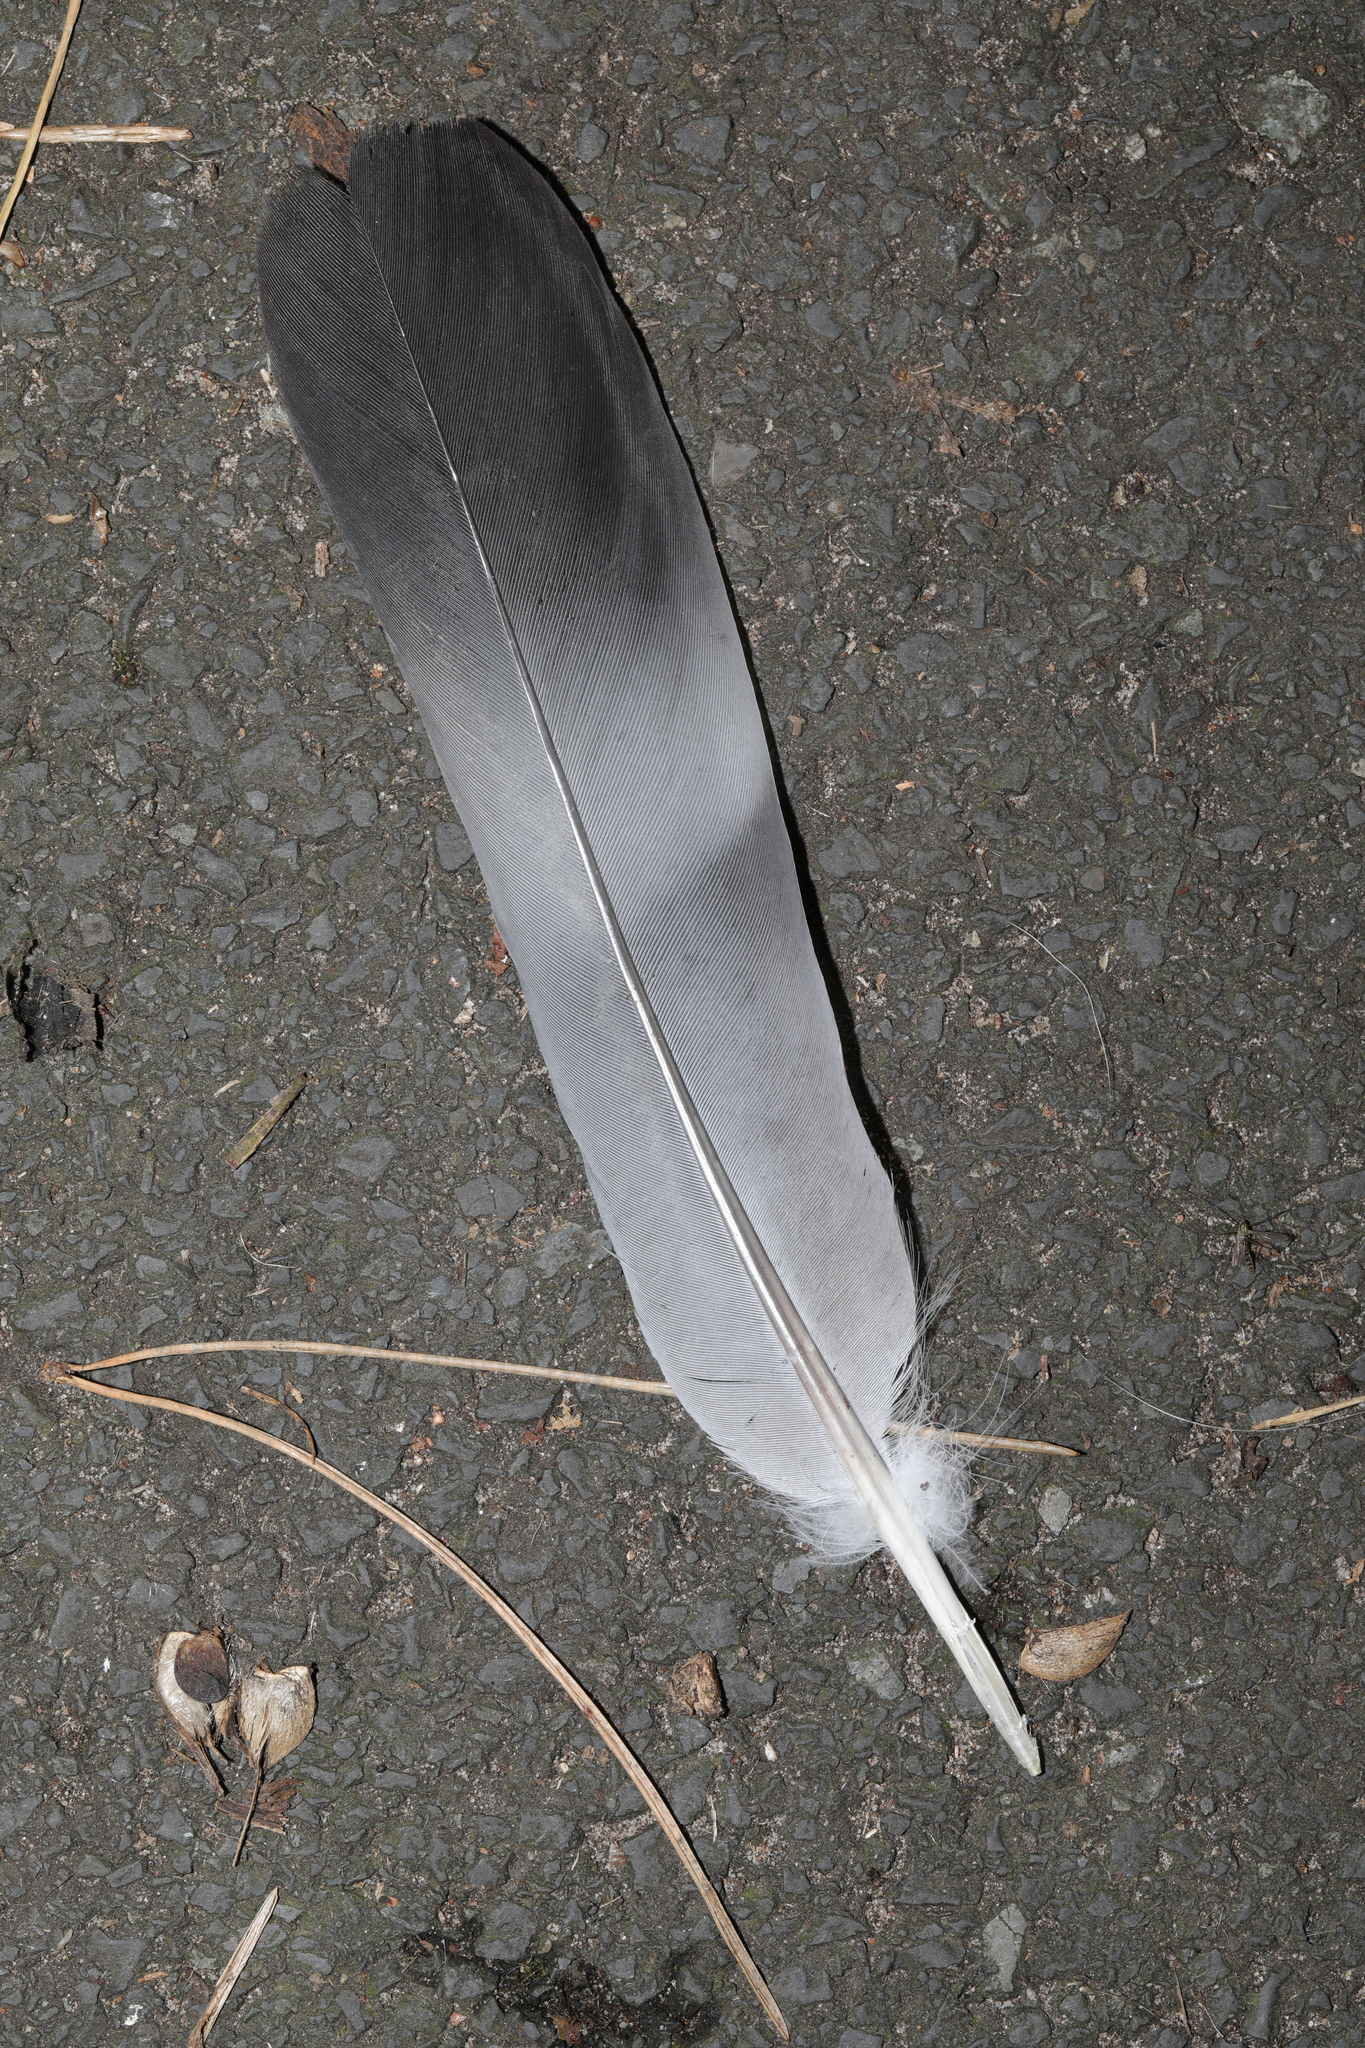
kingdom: Animalia
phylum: Chordata
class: Aves
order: Columbiformes
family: Columbidae
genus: Columba
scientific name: Columba palumbus
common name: Common wood pigeon
